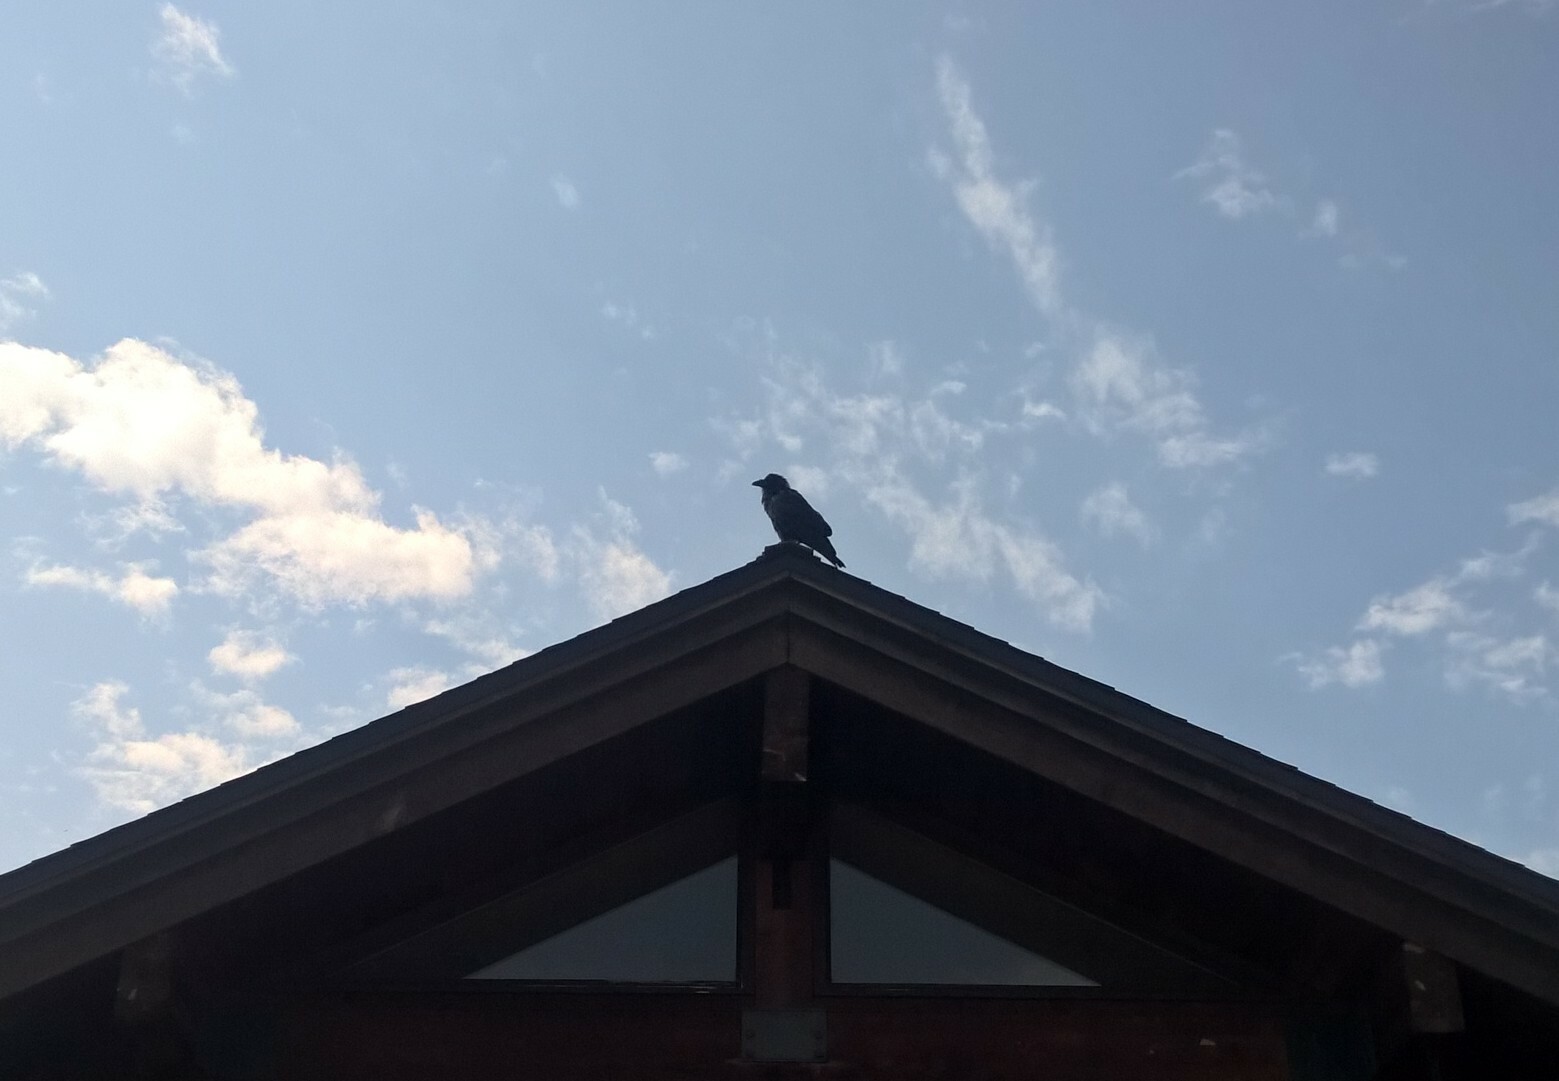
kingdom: Animalia
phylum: Chordata
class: Aves
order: Passeriformes
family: Corvidae
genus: Corvus
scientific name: Corvus corax
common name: Common raven
